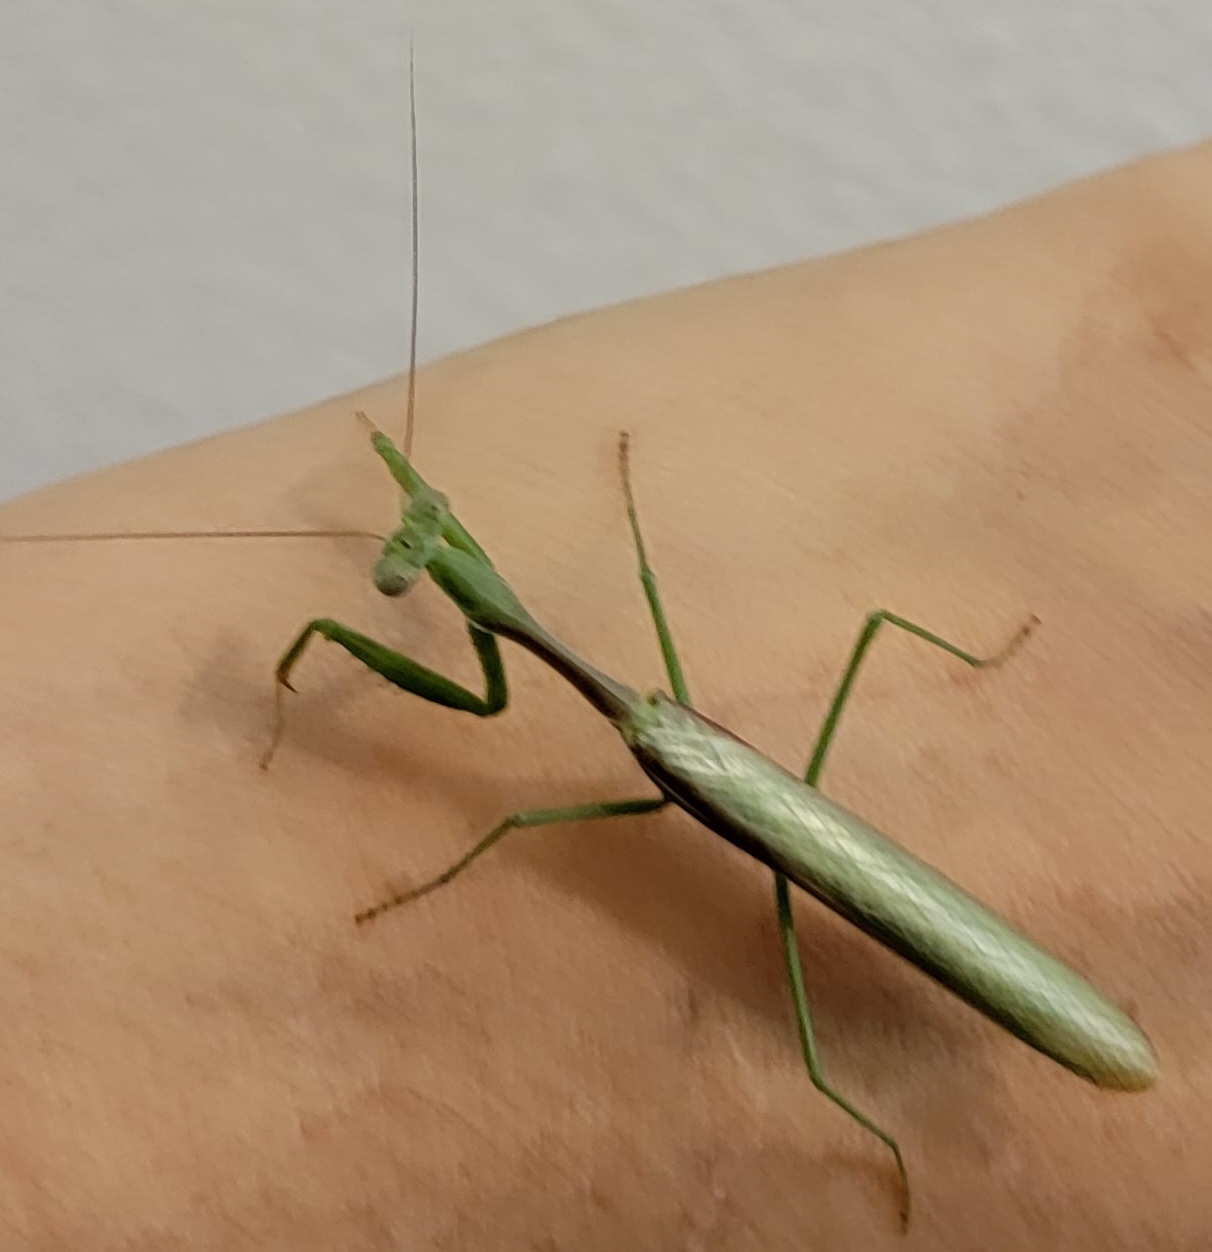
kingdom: Animalia
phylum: Arthropoda
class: Insecta
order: Mantodea
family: Mantidae
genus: Stagmomantis
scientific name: Stagmomantis limbata
